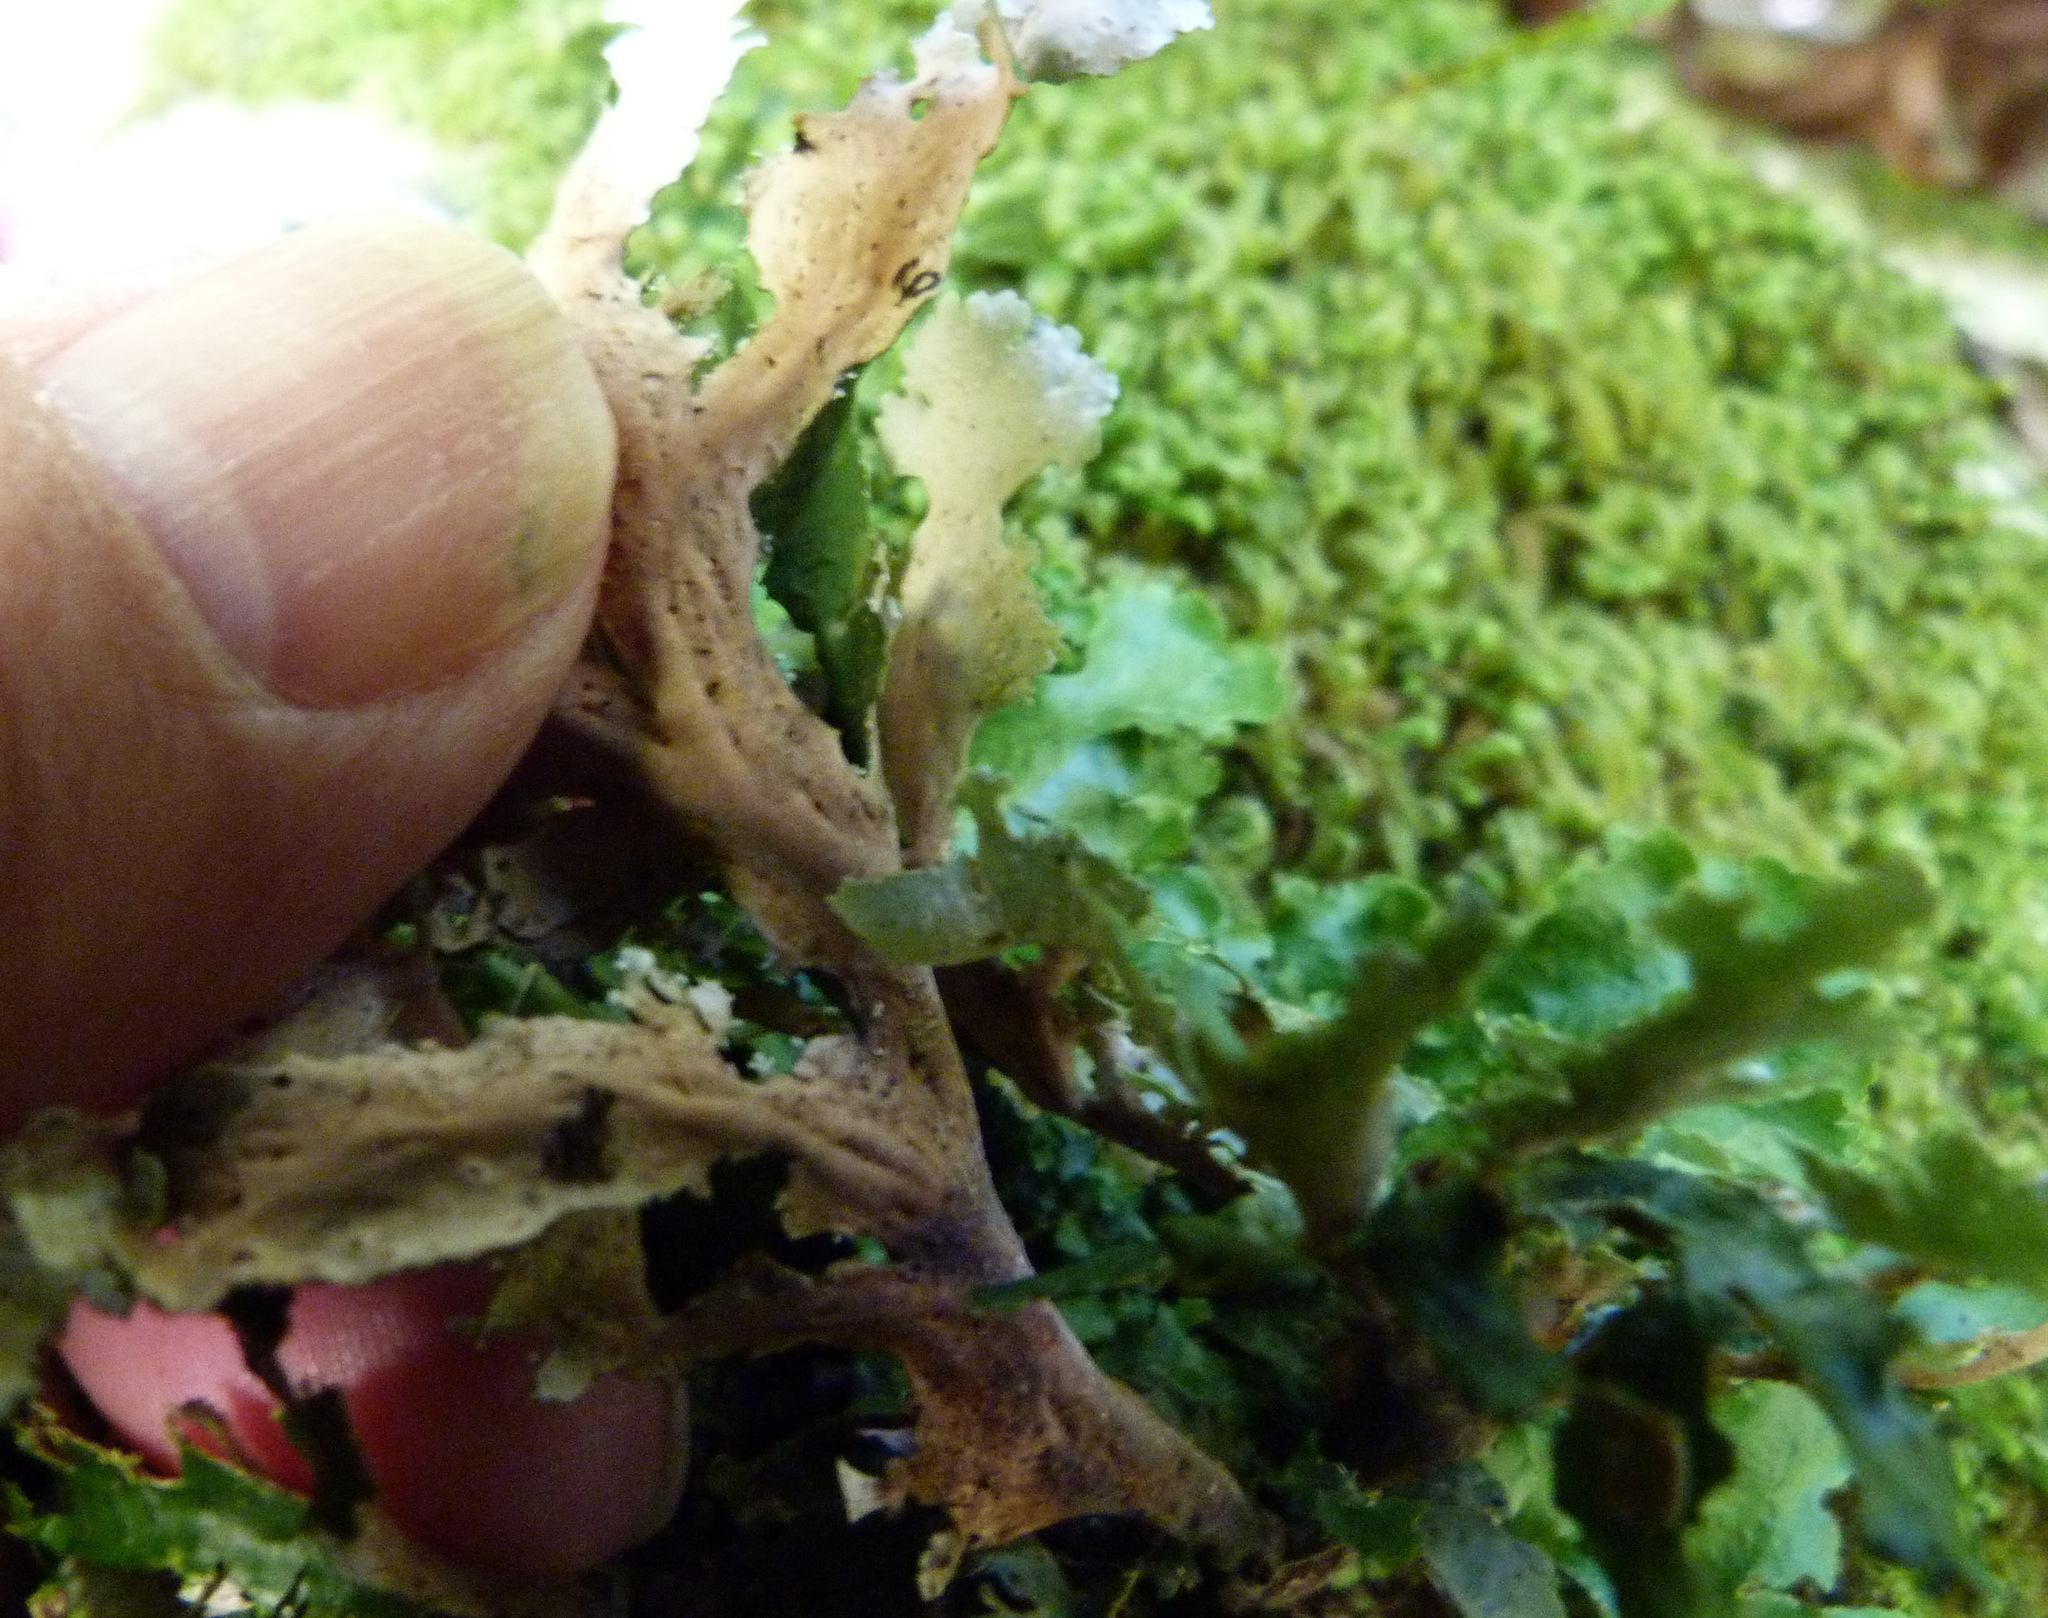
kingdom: Fungi
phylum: Ascomycota
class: Lecanoromycetes
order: Peltigerales
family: Lobariaceae
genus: Sticta
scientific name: Sticta filix
